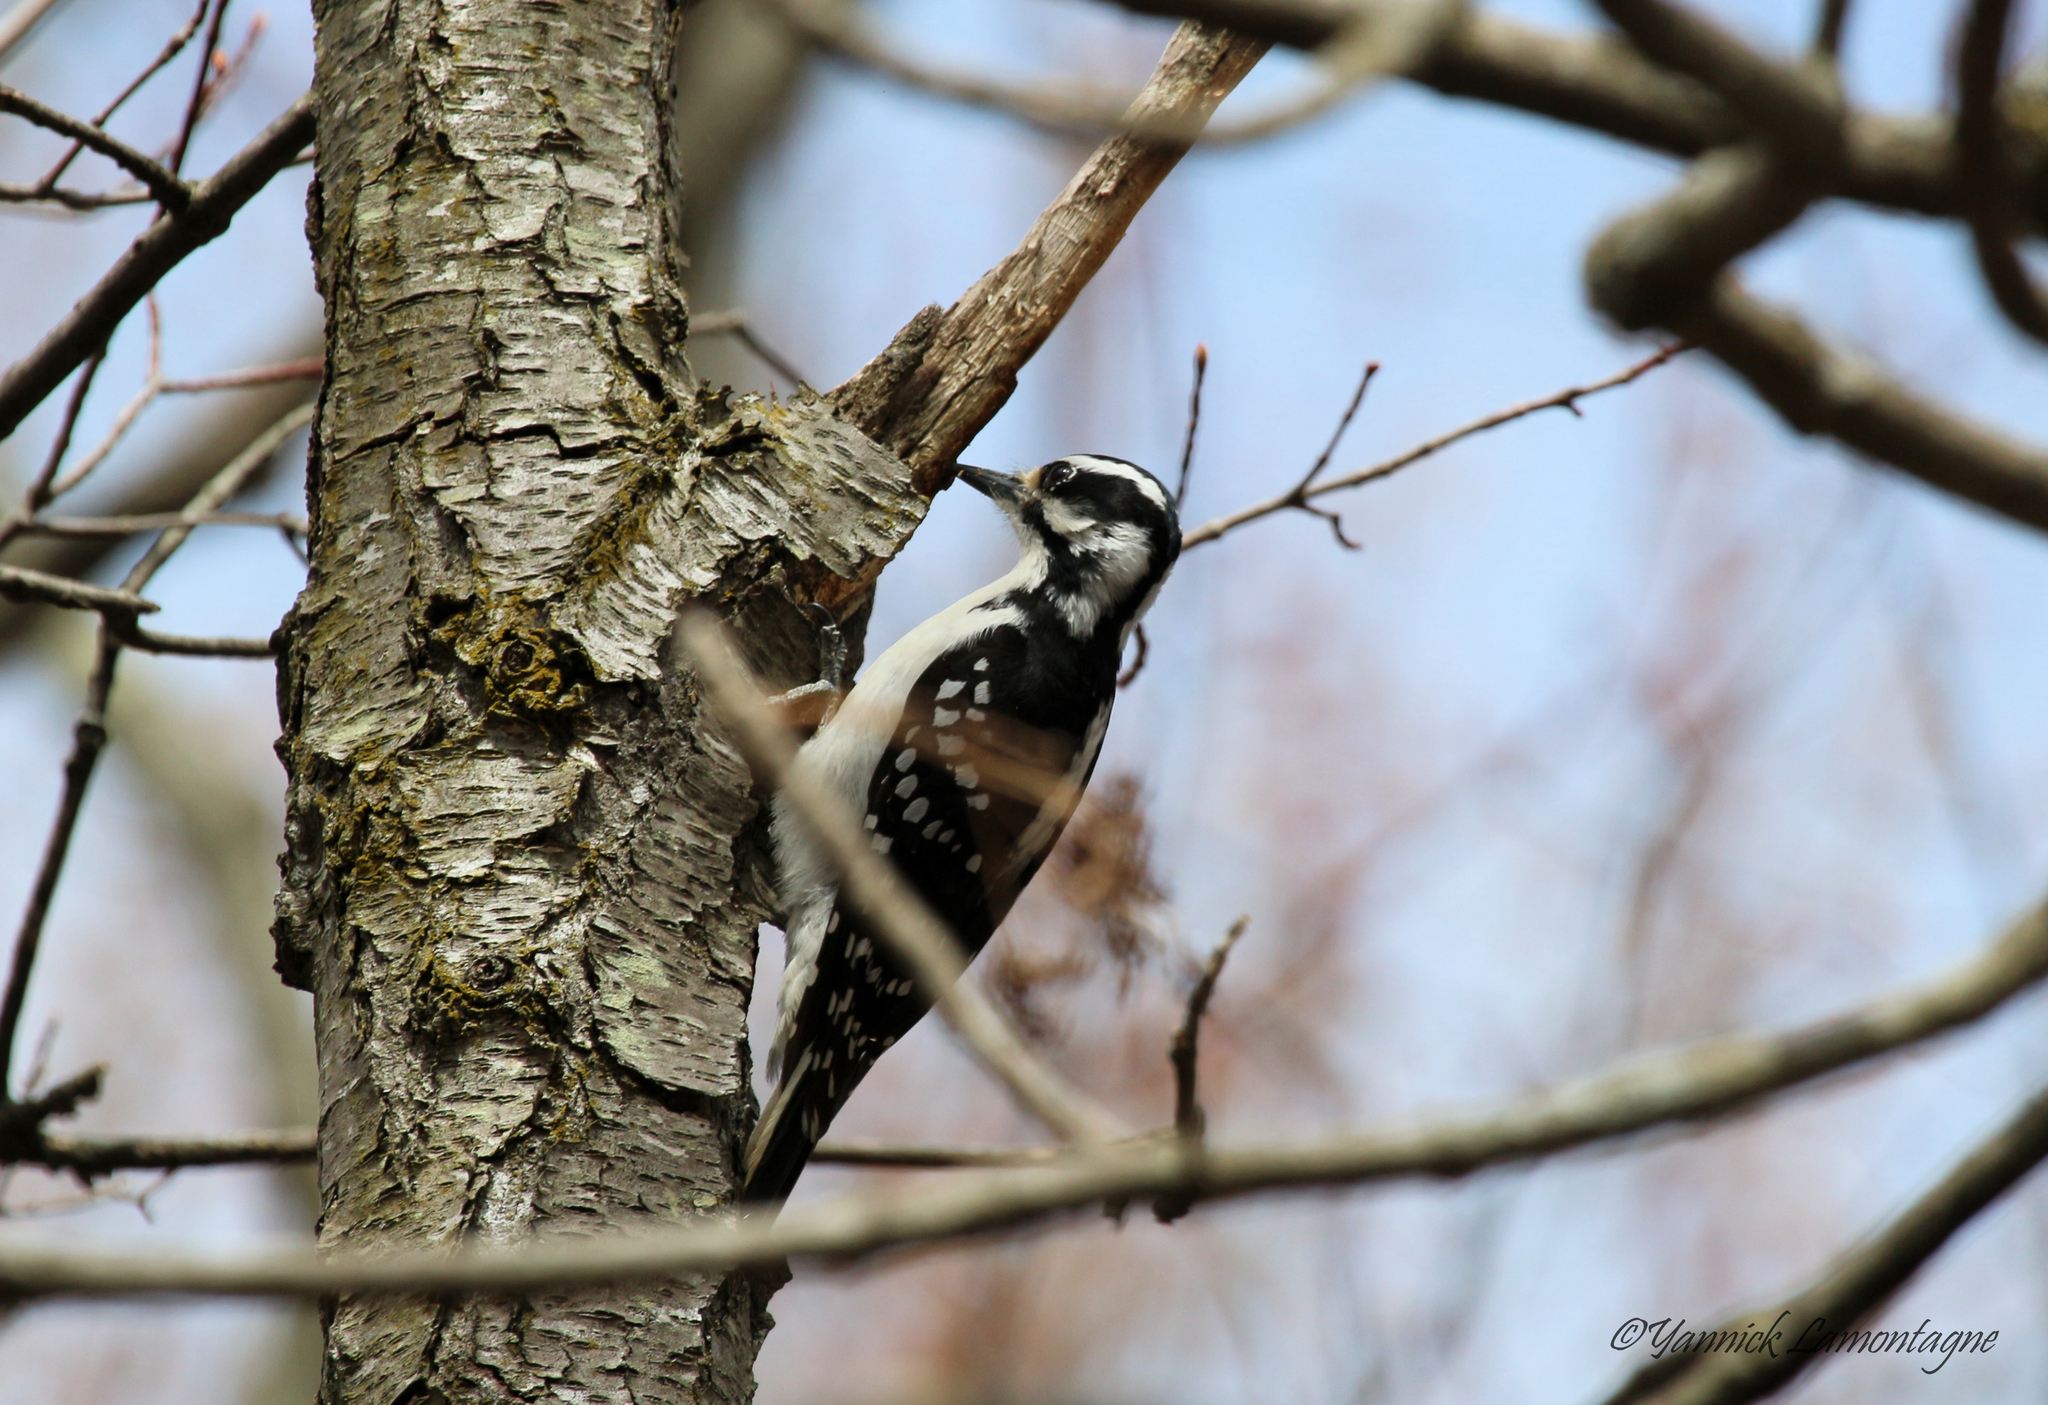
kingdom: Animalia
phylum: Chordata
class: Aves
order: Piciformes
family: Picidae
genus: Leuconotopicus
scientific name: Leuconotopicus villosus
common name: Hairy woodpecker
